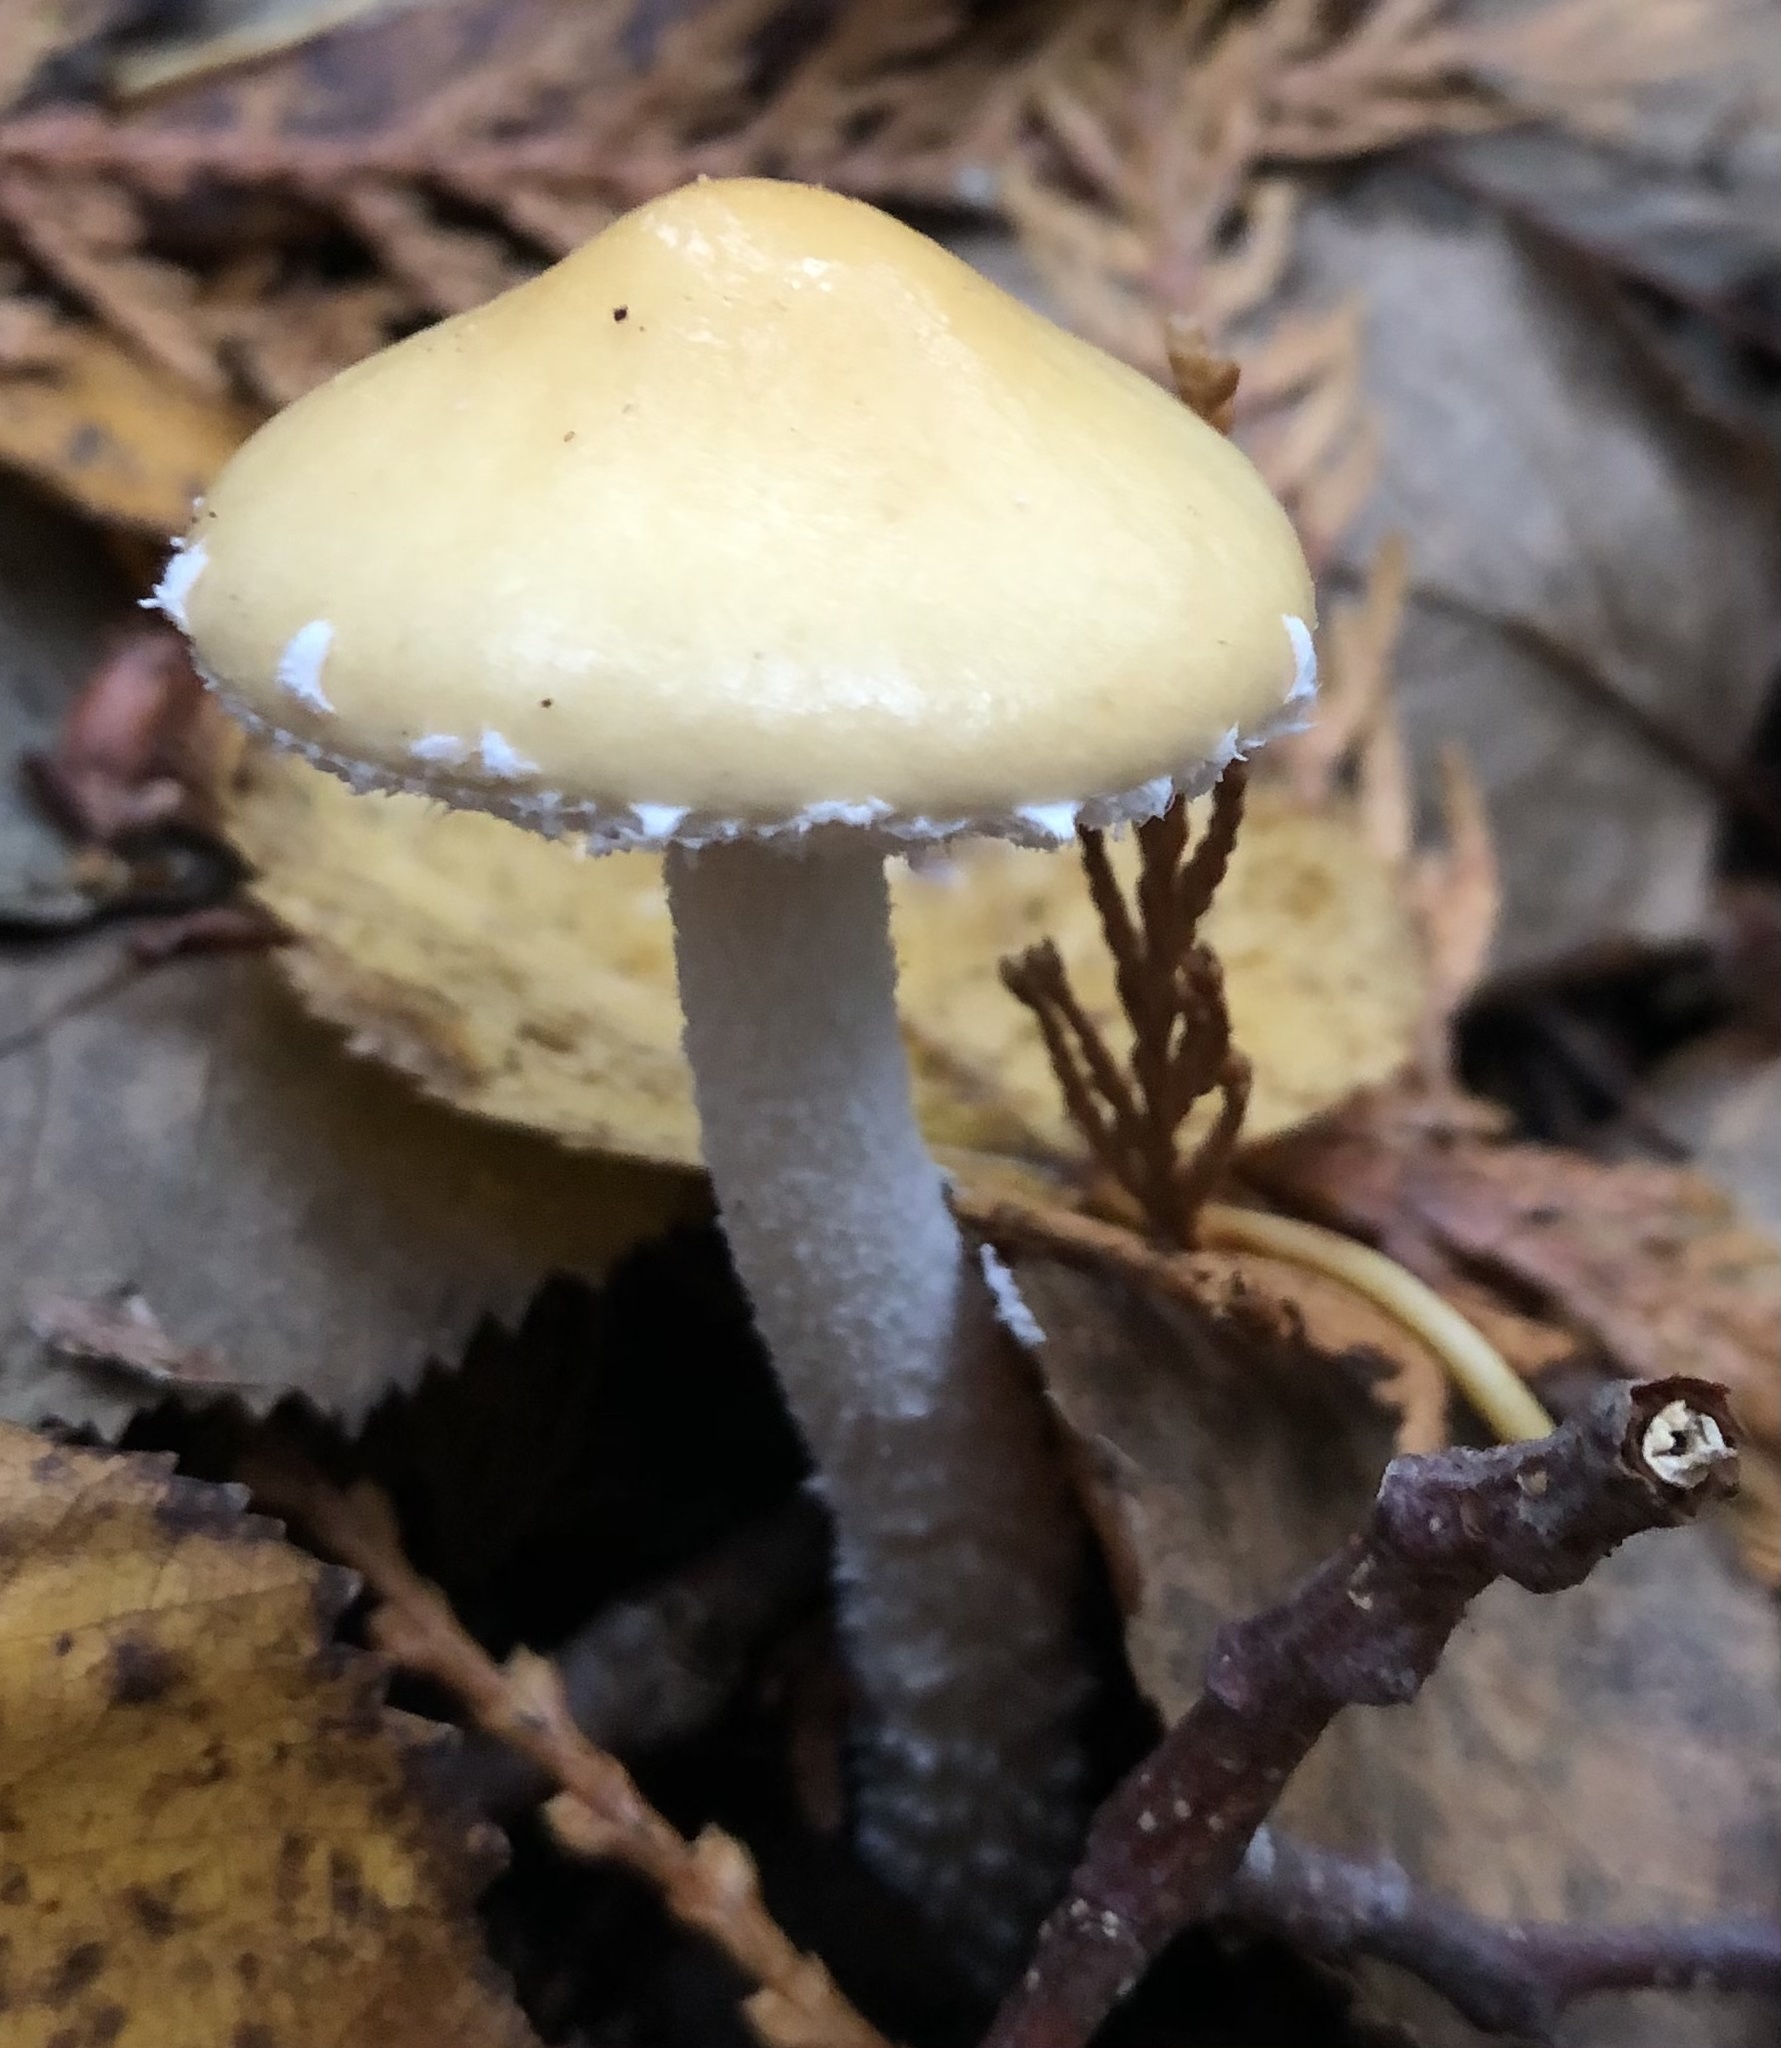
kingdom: Fungi
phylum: Basidiomycota
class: Agaricomycetes
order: Agaricales
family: Strophariaceae
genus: Stropharia
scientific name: Stropharia ambigua
